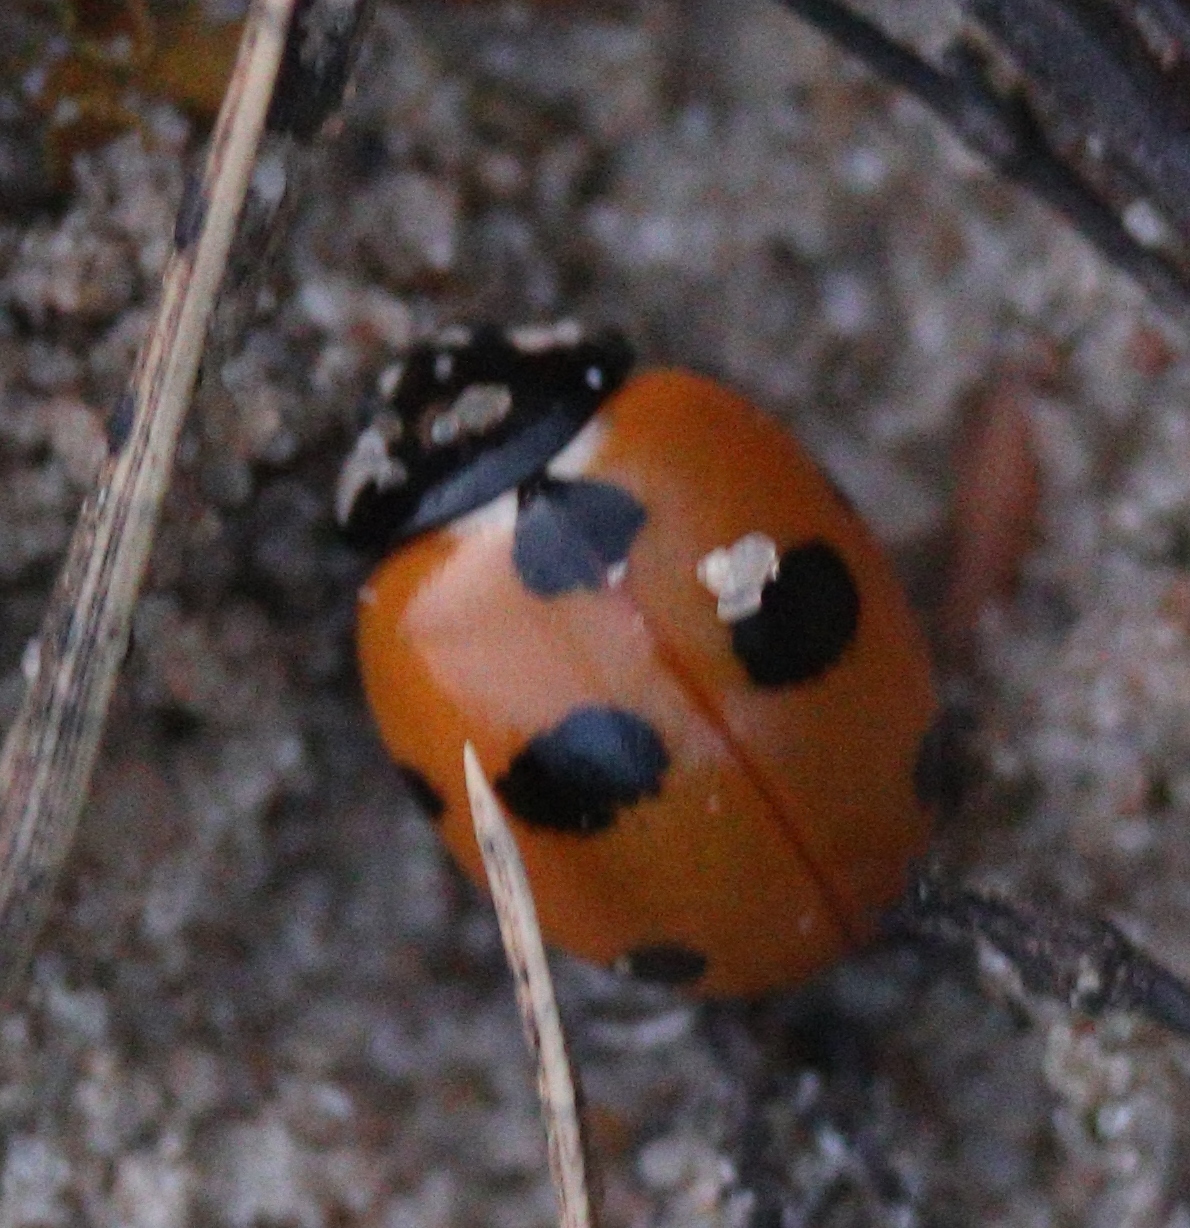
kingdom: Animalia
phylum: Arthropoda
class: Insecta
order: Coleoptera
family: Coccinellidae
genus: Coccinella
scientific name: Coccinella magnifica
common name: Scarce 7-spot ladybird
